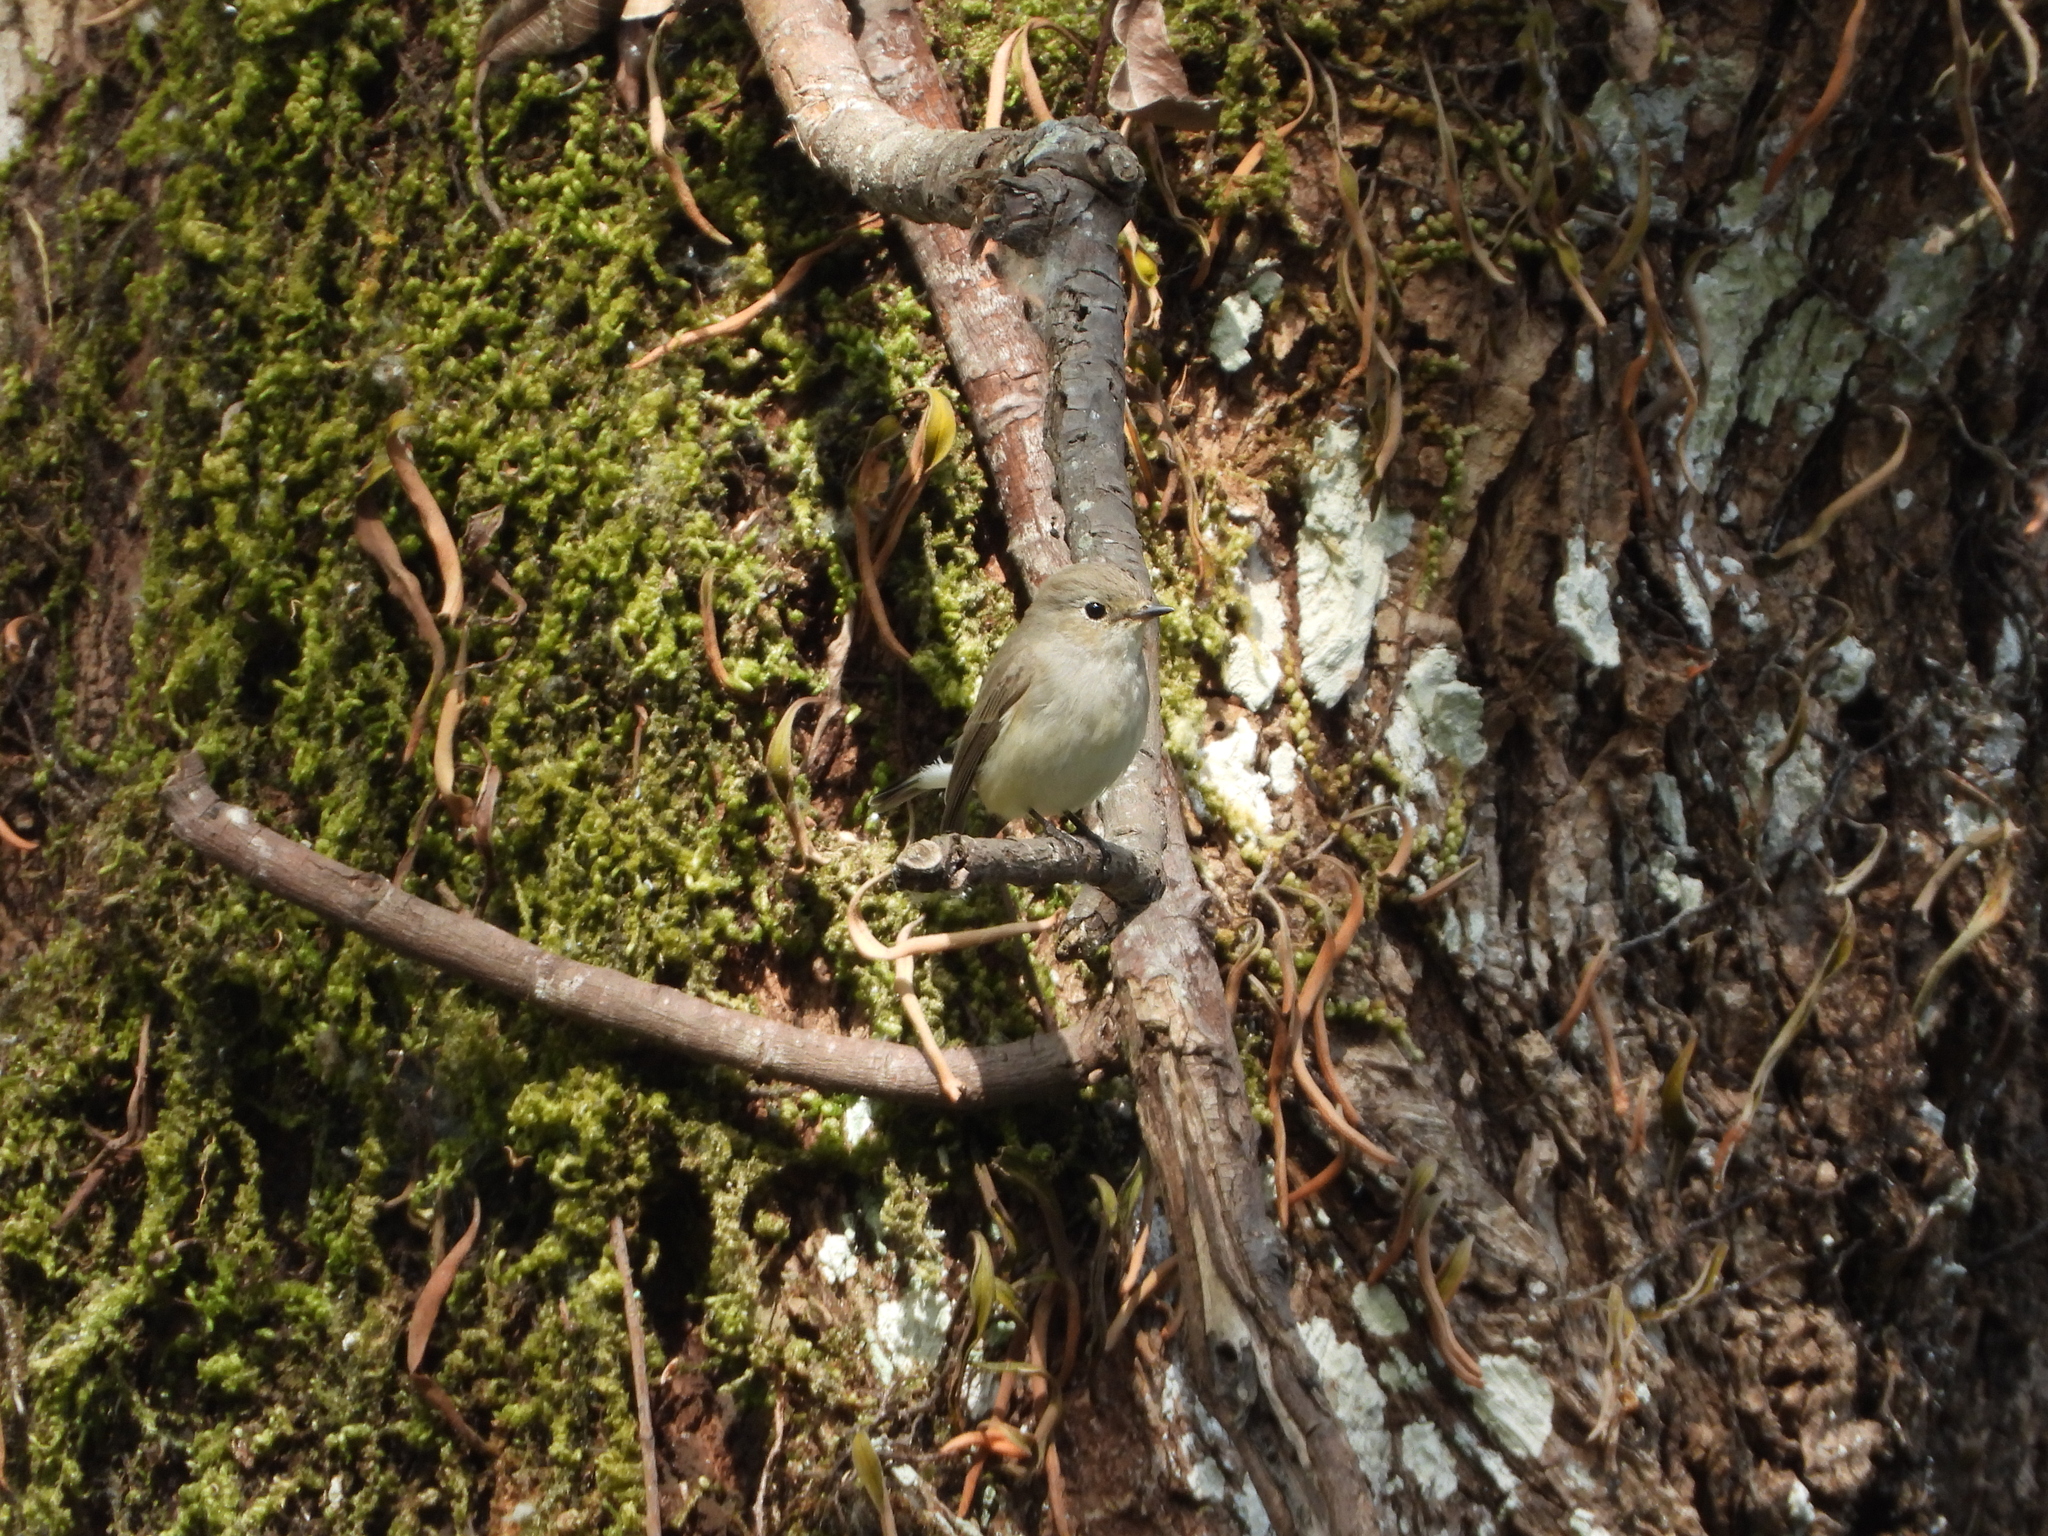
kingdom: Animalia
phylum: Chordata
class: Aves
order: Passeriformes
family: Muscicapidae
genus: Ficedula
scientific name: Ficedula albicilla
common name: Taiga flycatcher
